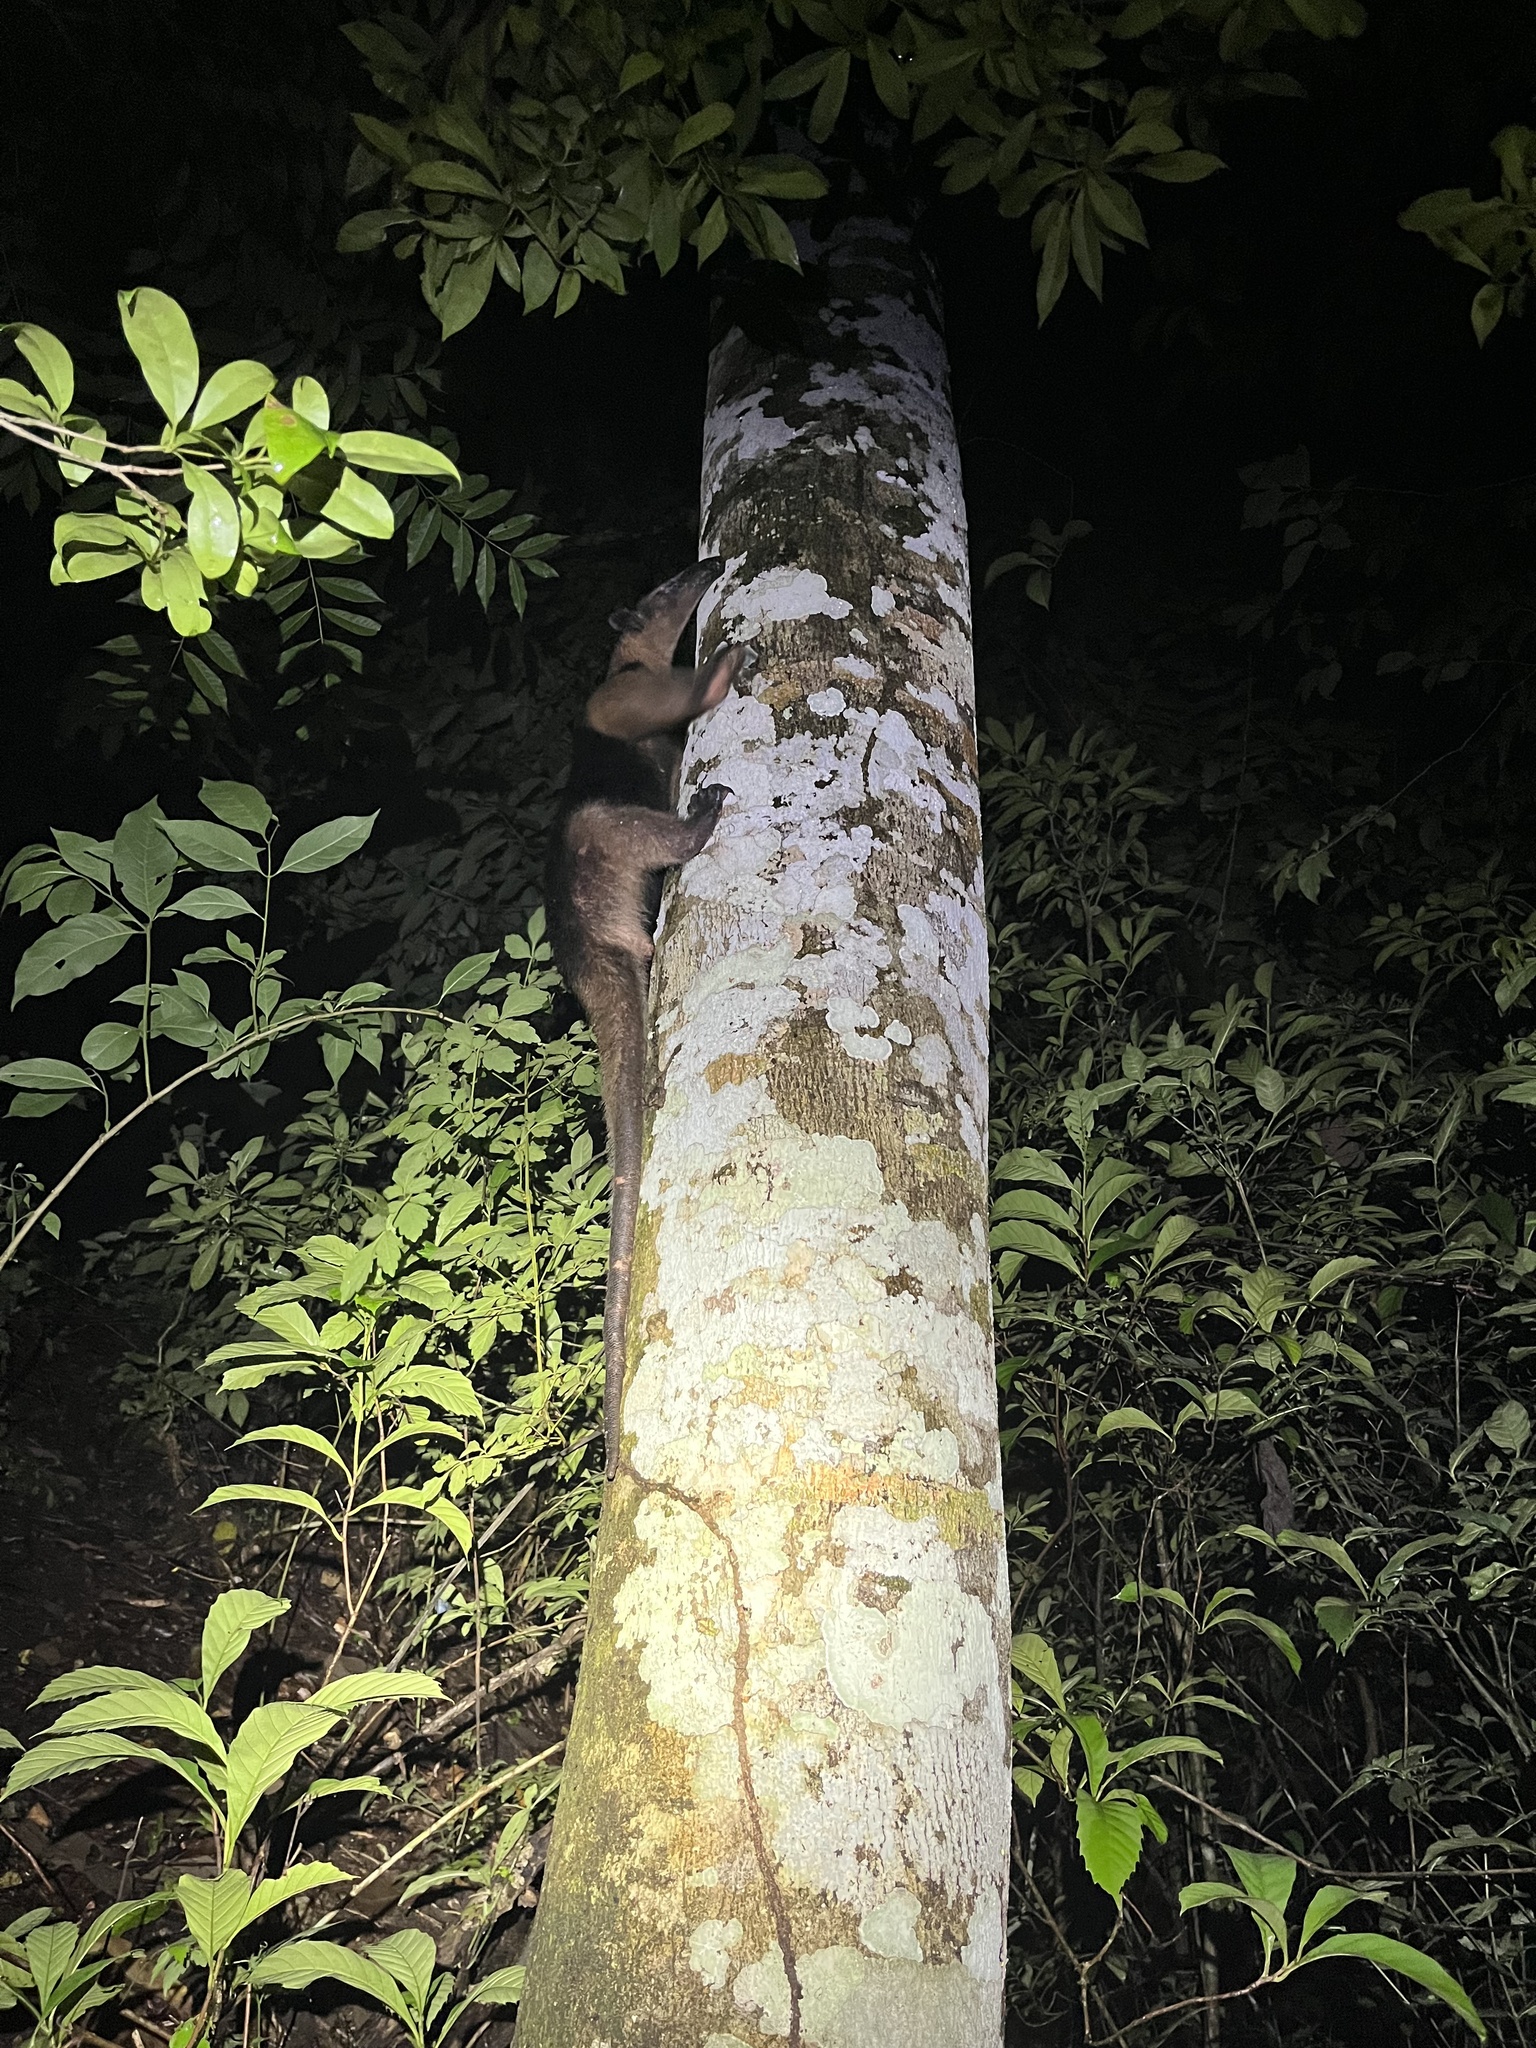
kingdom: Animalia
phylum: Chordata
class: Mammalia
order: Pilosa
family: Myrmecophagidae
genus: Tamandua
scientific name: Tamandua mexicana
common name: Northern tamandua
